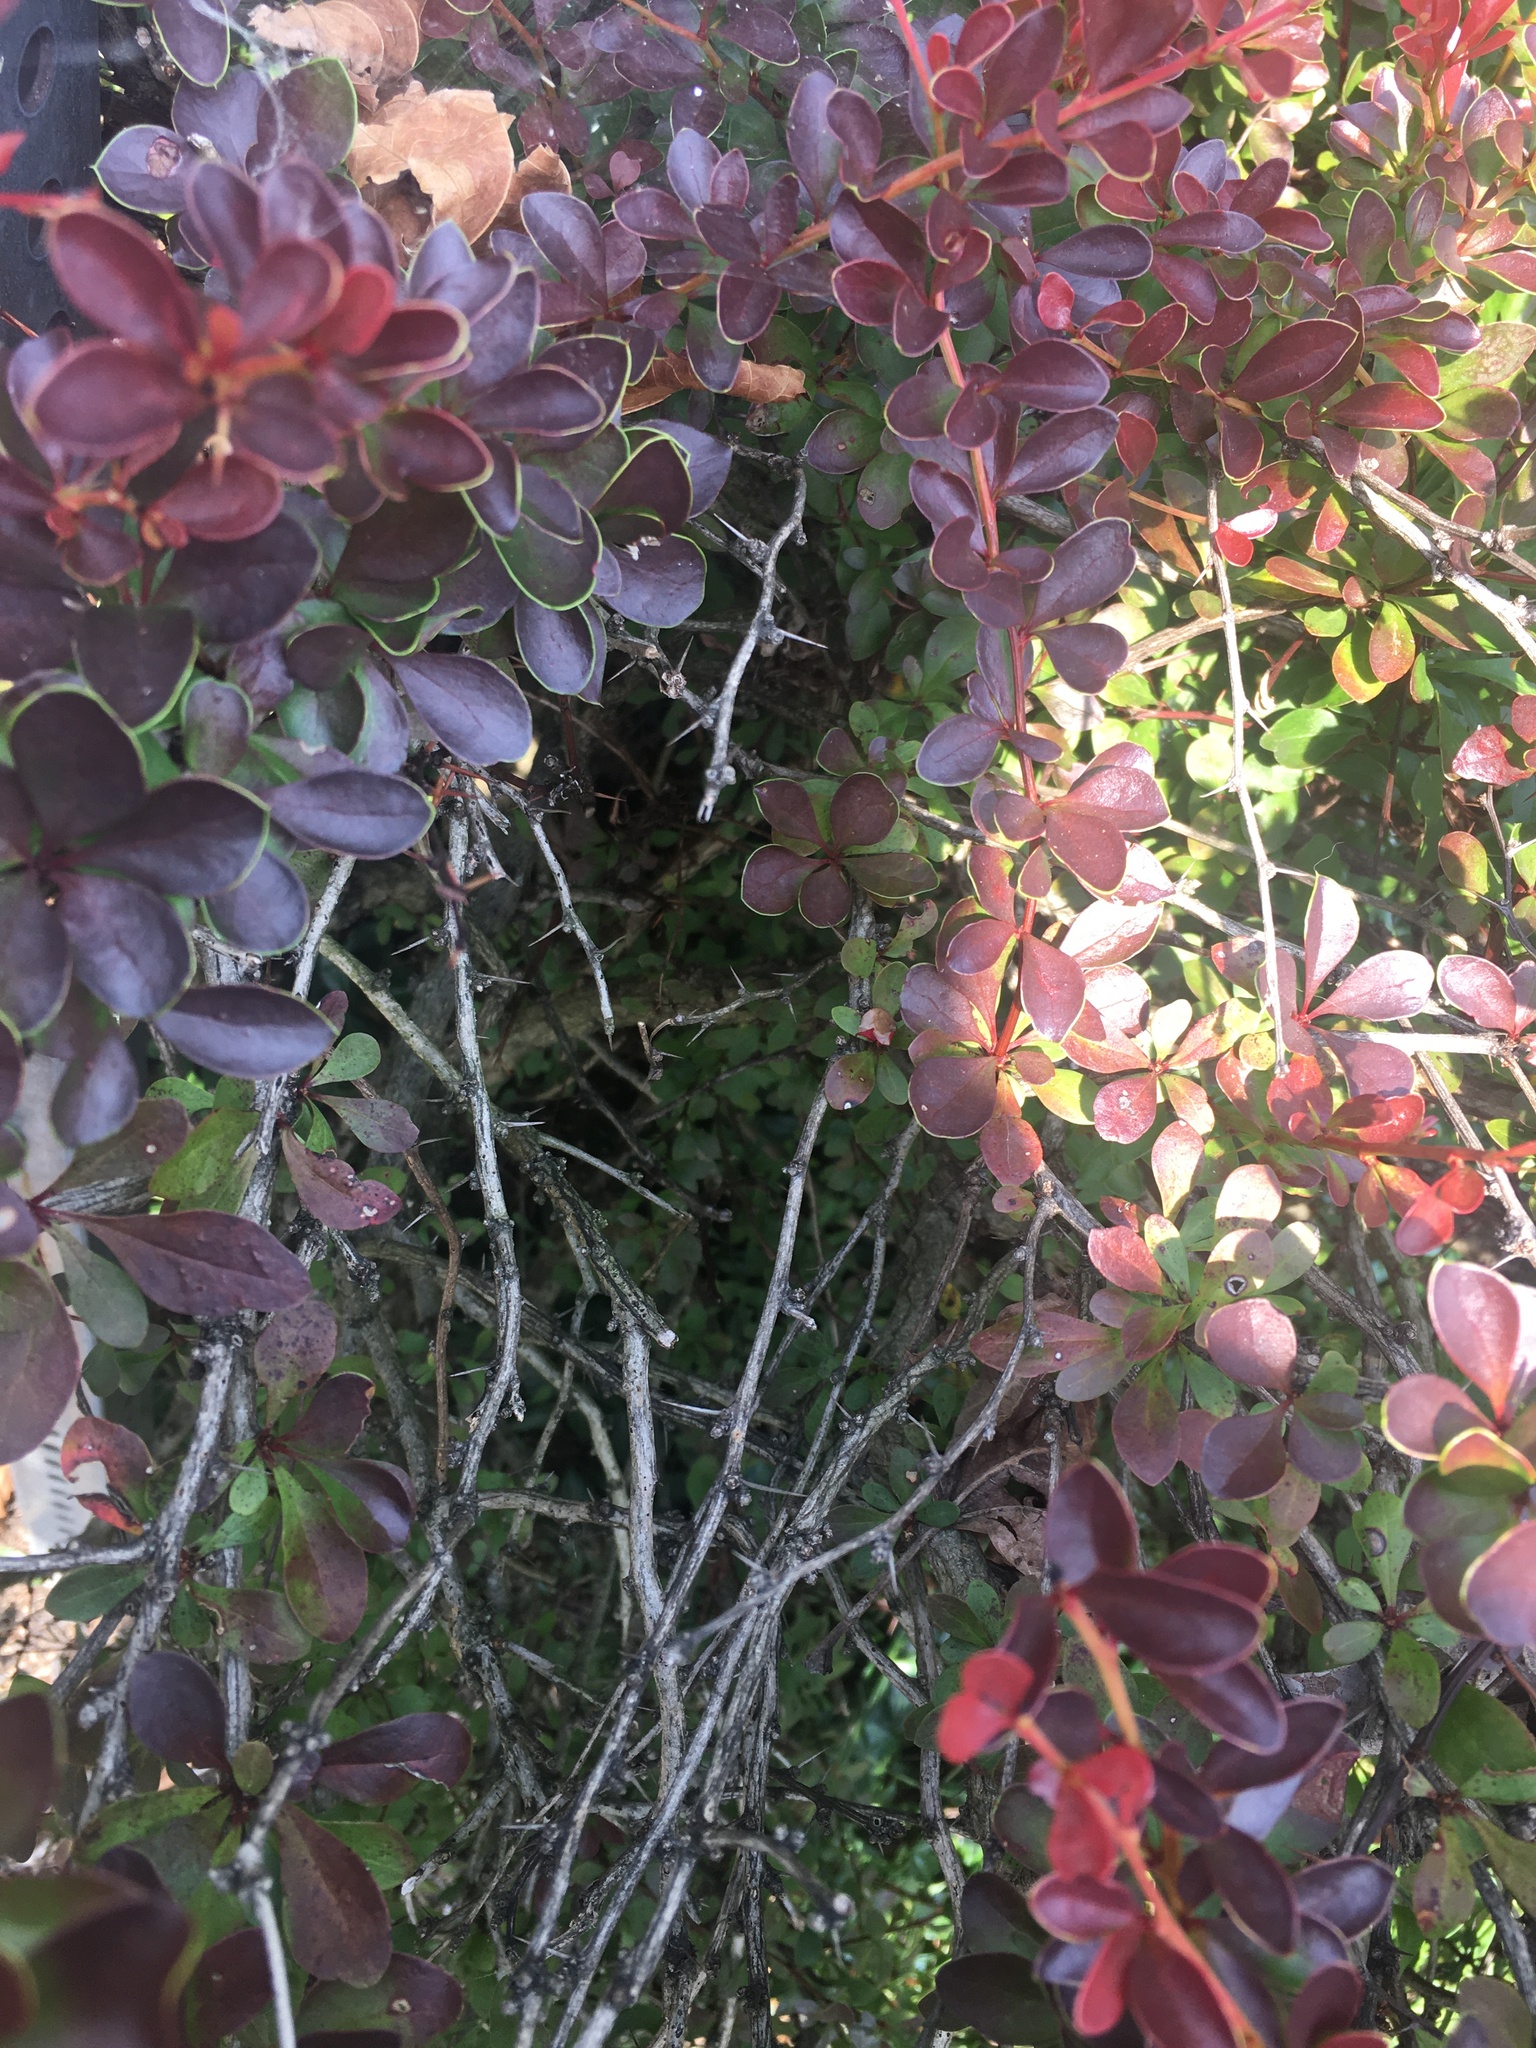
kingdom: Plantae
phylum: Tracheophyta
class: Magnoliopsida
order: Ranunculales
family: Berberidaceae
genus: Berberis
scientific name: Berberis thunbergii
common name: Japanese barberry
